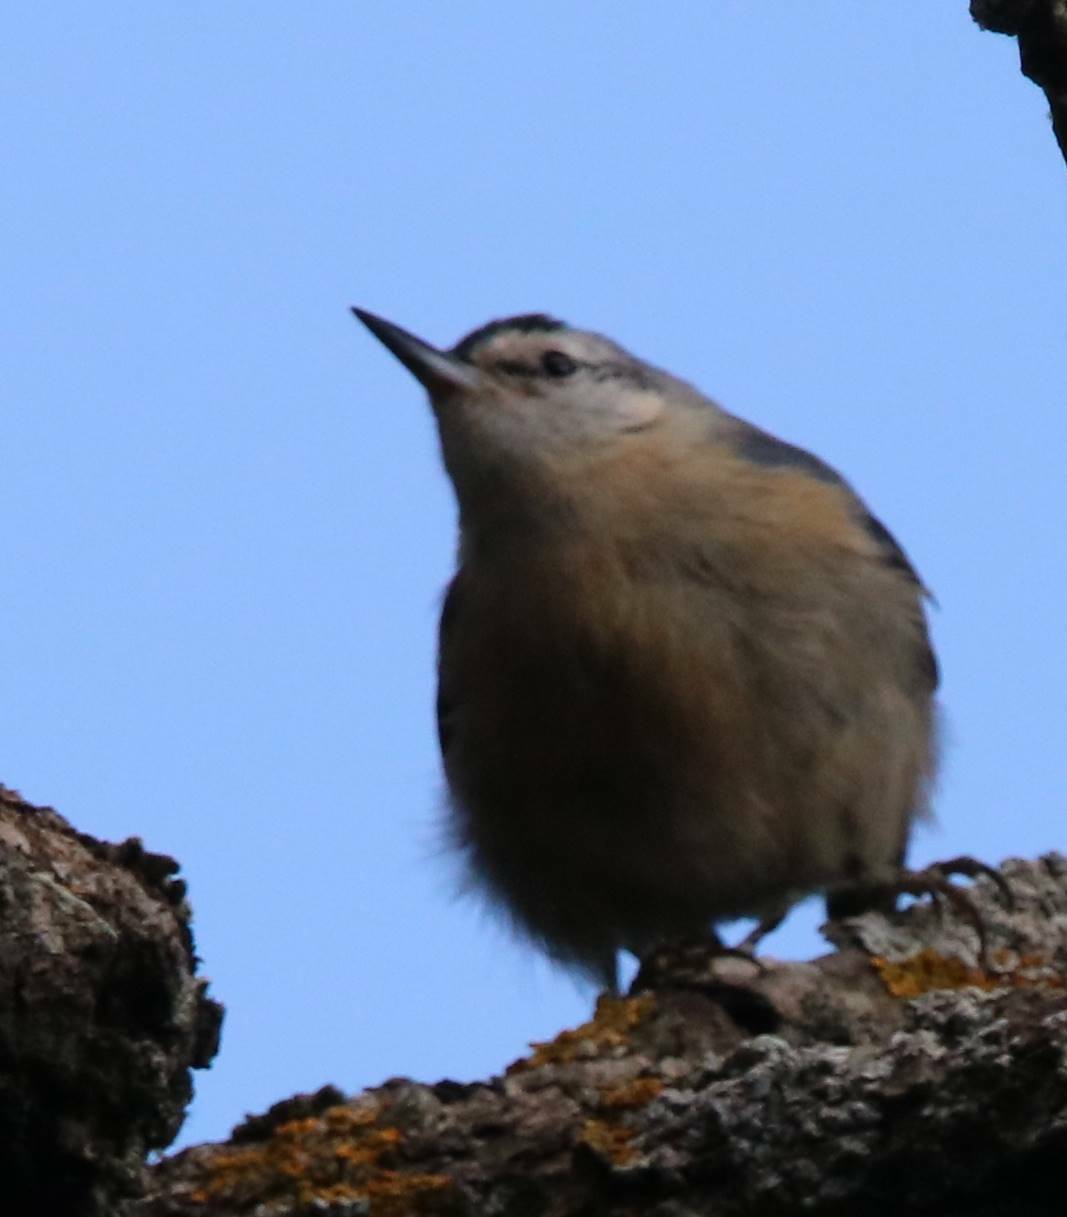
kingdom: Animalia
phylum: Chordata
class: Aves
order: Passeriformes
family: Sittidae
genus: Sitta
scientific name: Sitta ledanti
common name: Algerian nuthatch
